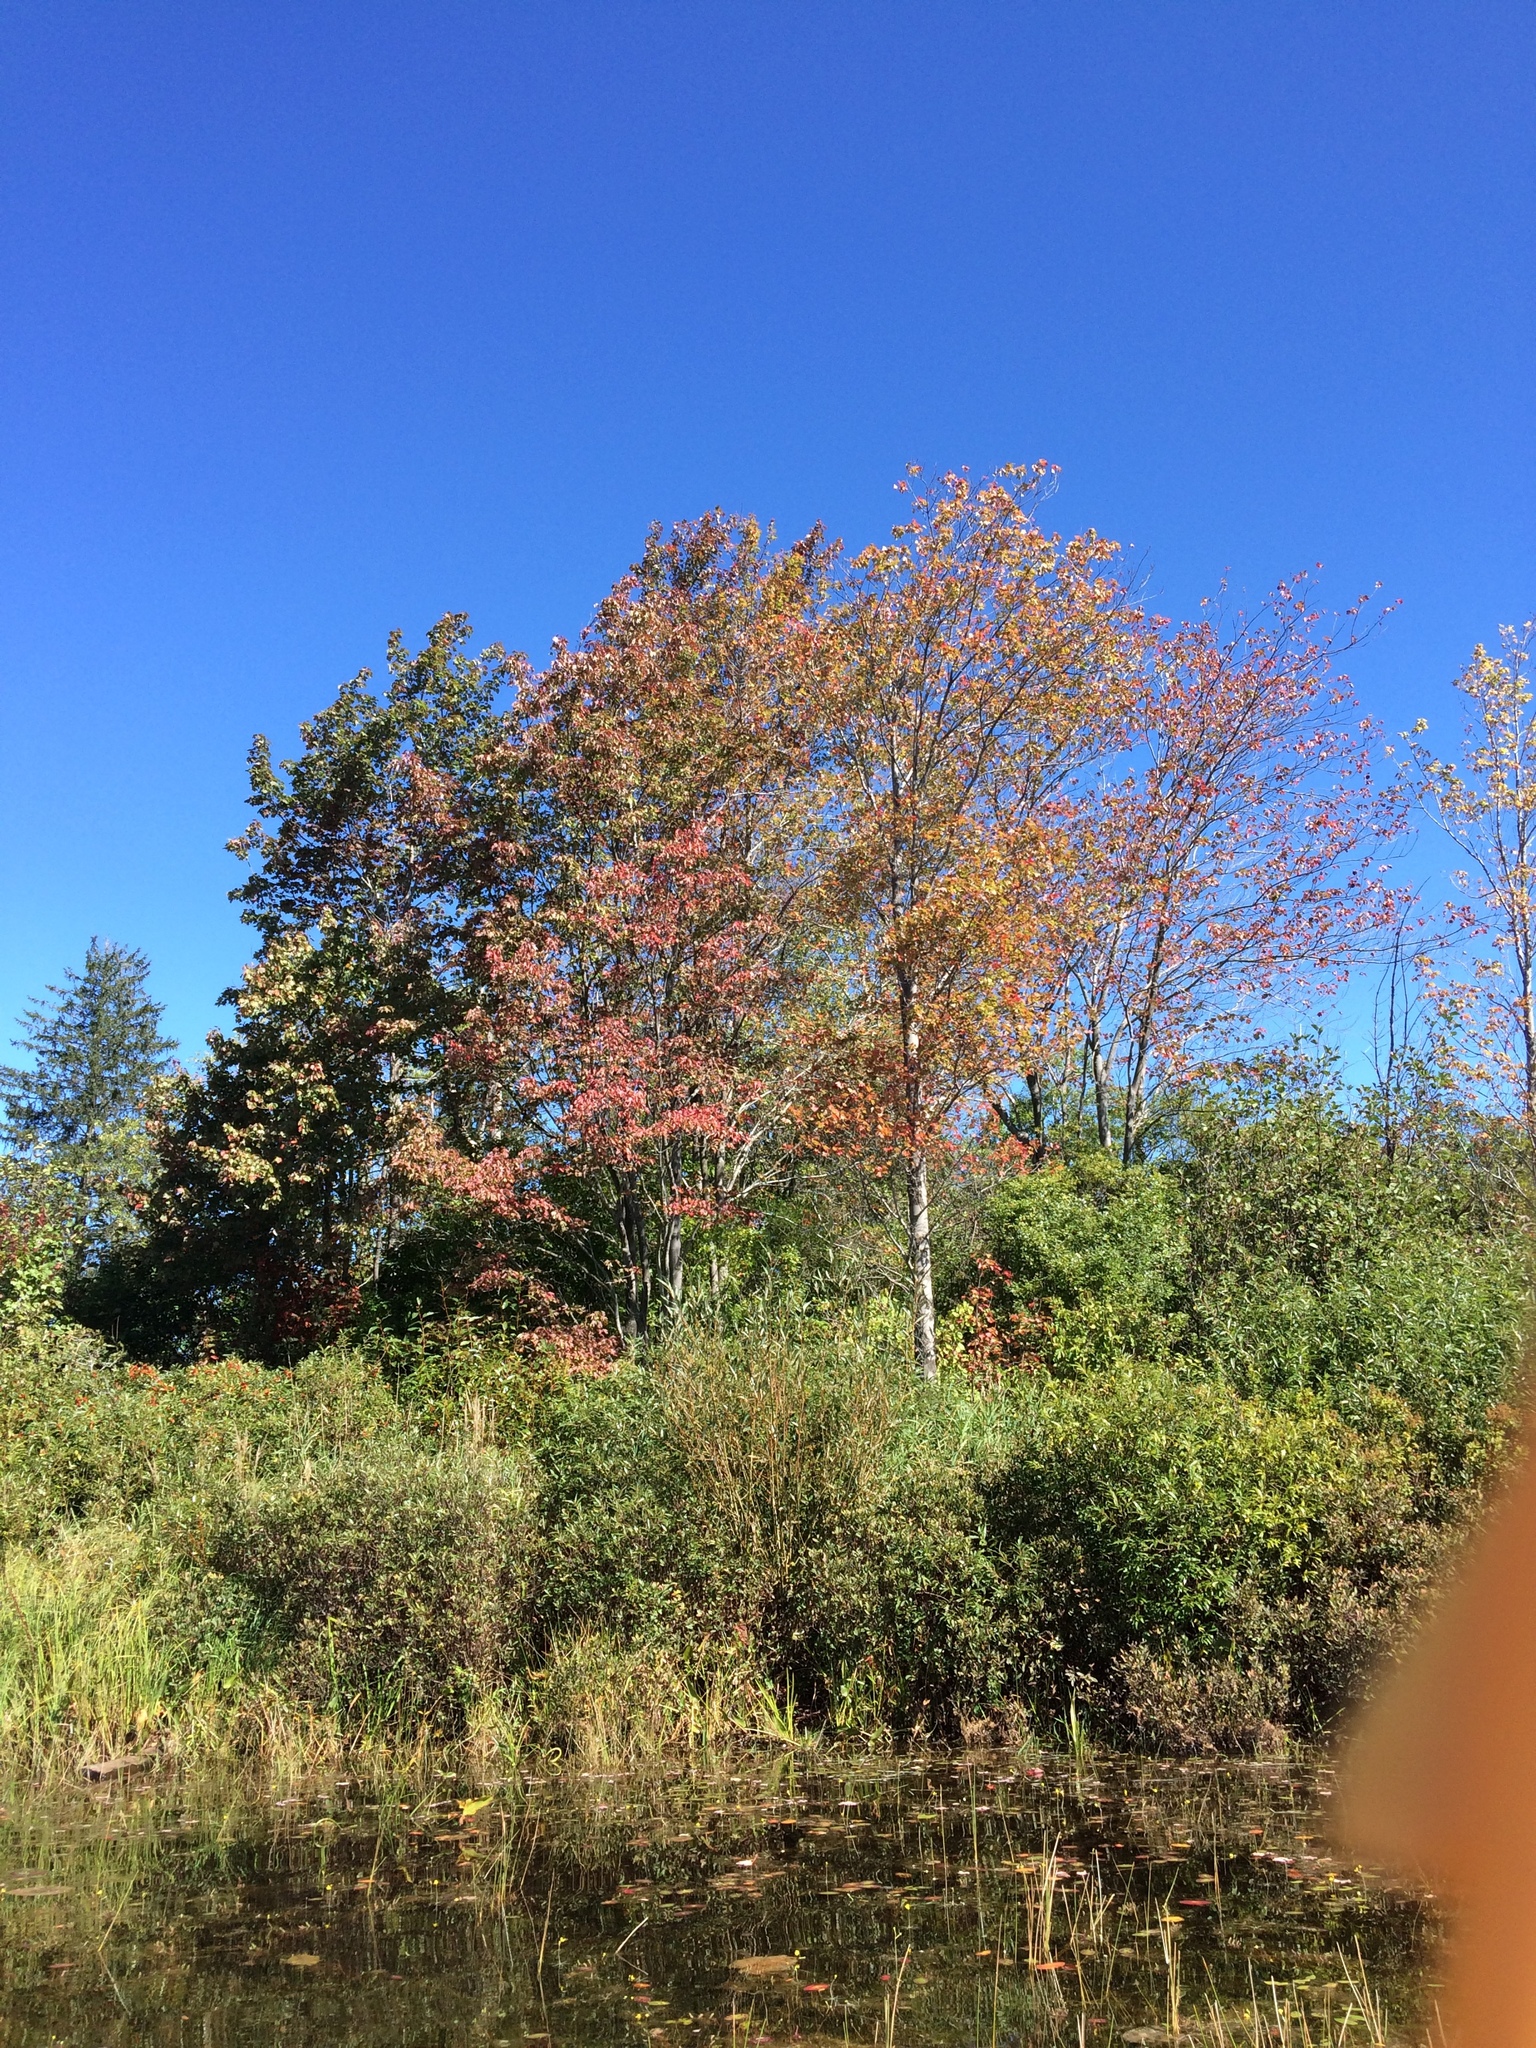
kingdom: Plantae
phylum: Tracheophyta
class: Magnoliopsida
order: Sapindales
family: Sapindaceae
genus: Acer
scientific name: Acer rubrum
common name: Red maple
